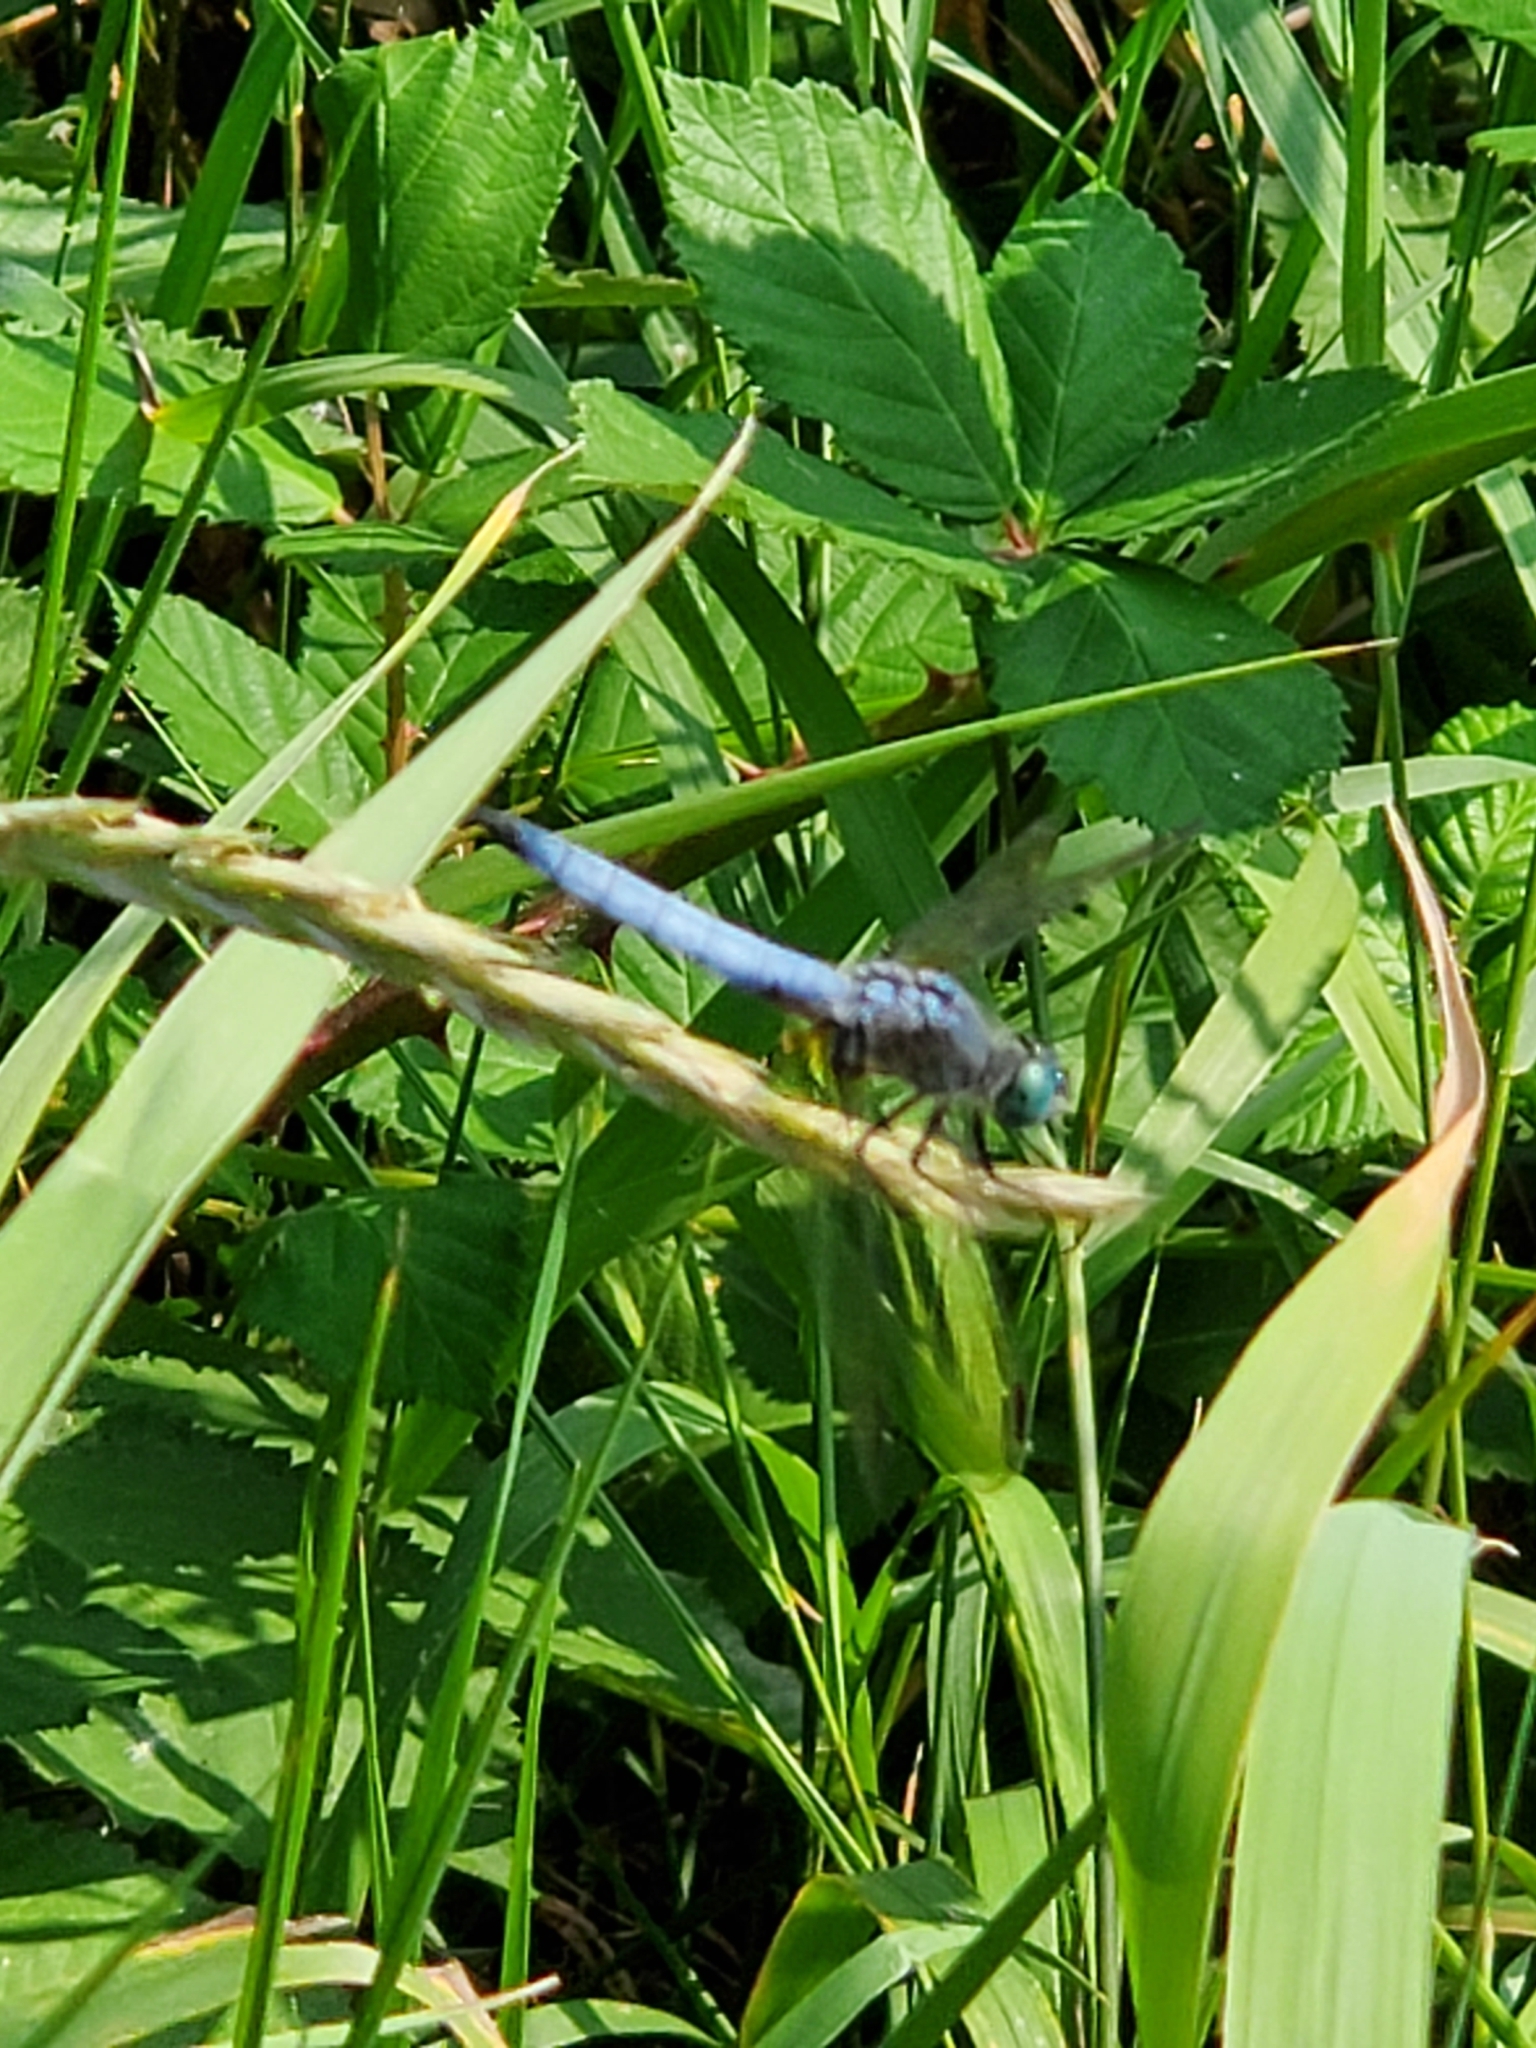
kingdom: Animalia
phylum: Arthropoda
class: Insecta
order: Odonata
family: Libellulidae
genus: Pachydiplax
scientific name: Pachydiplax longipennis
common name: Blue dasher
